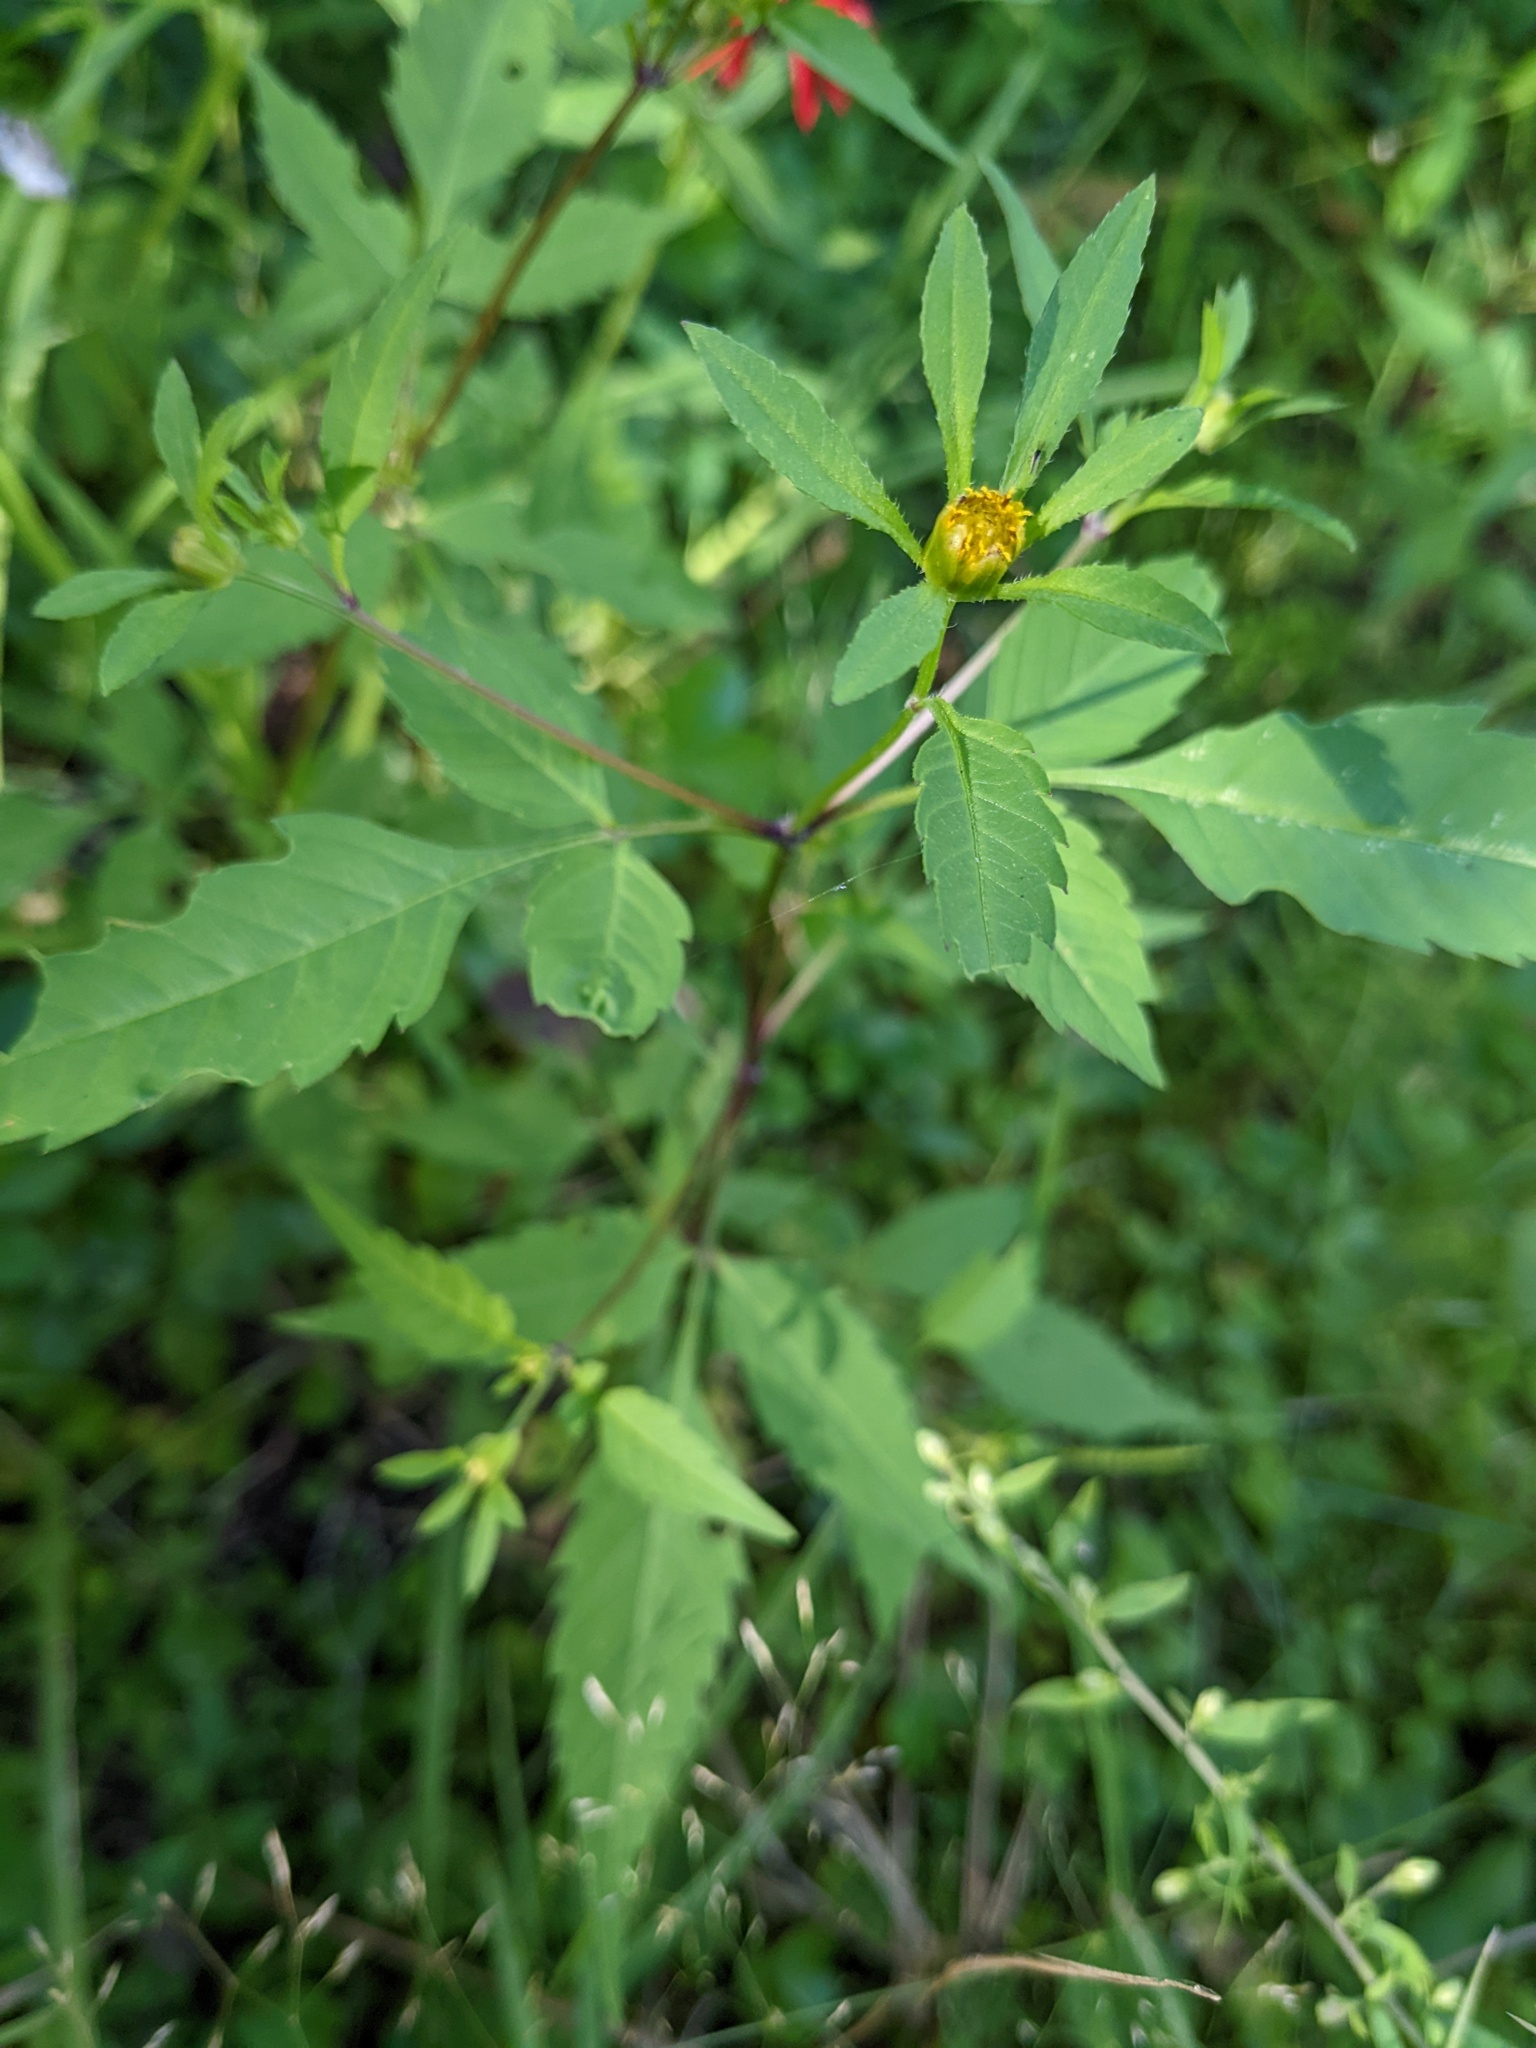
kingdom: Plantae
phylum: Tracheophyta
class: Magnoliopsida
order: Asterales
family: Asteraceae
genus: Bidens
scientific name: Bidens frondosa
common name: Beggarticks
